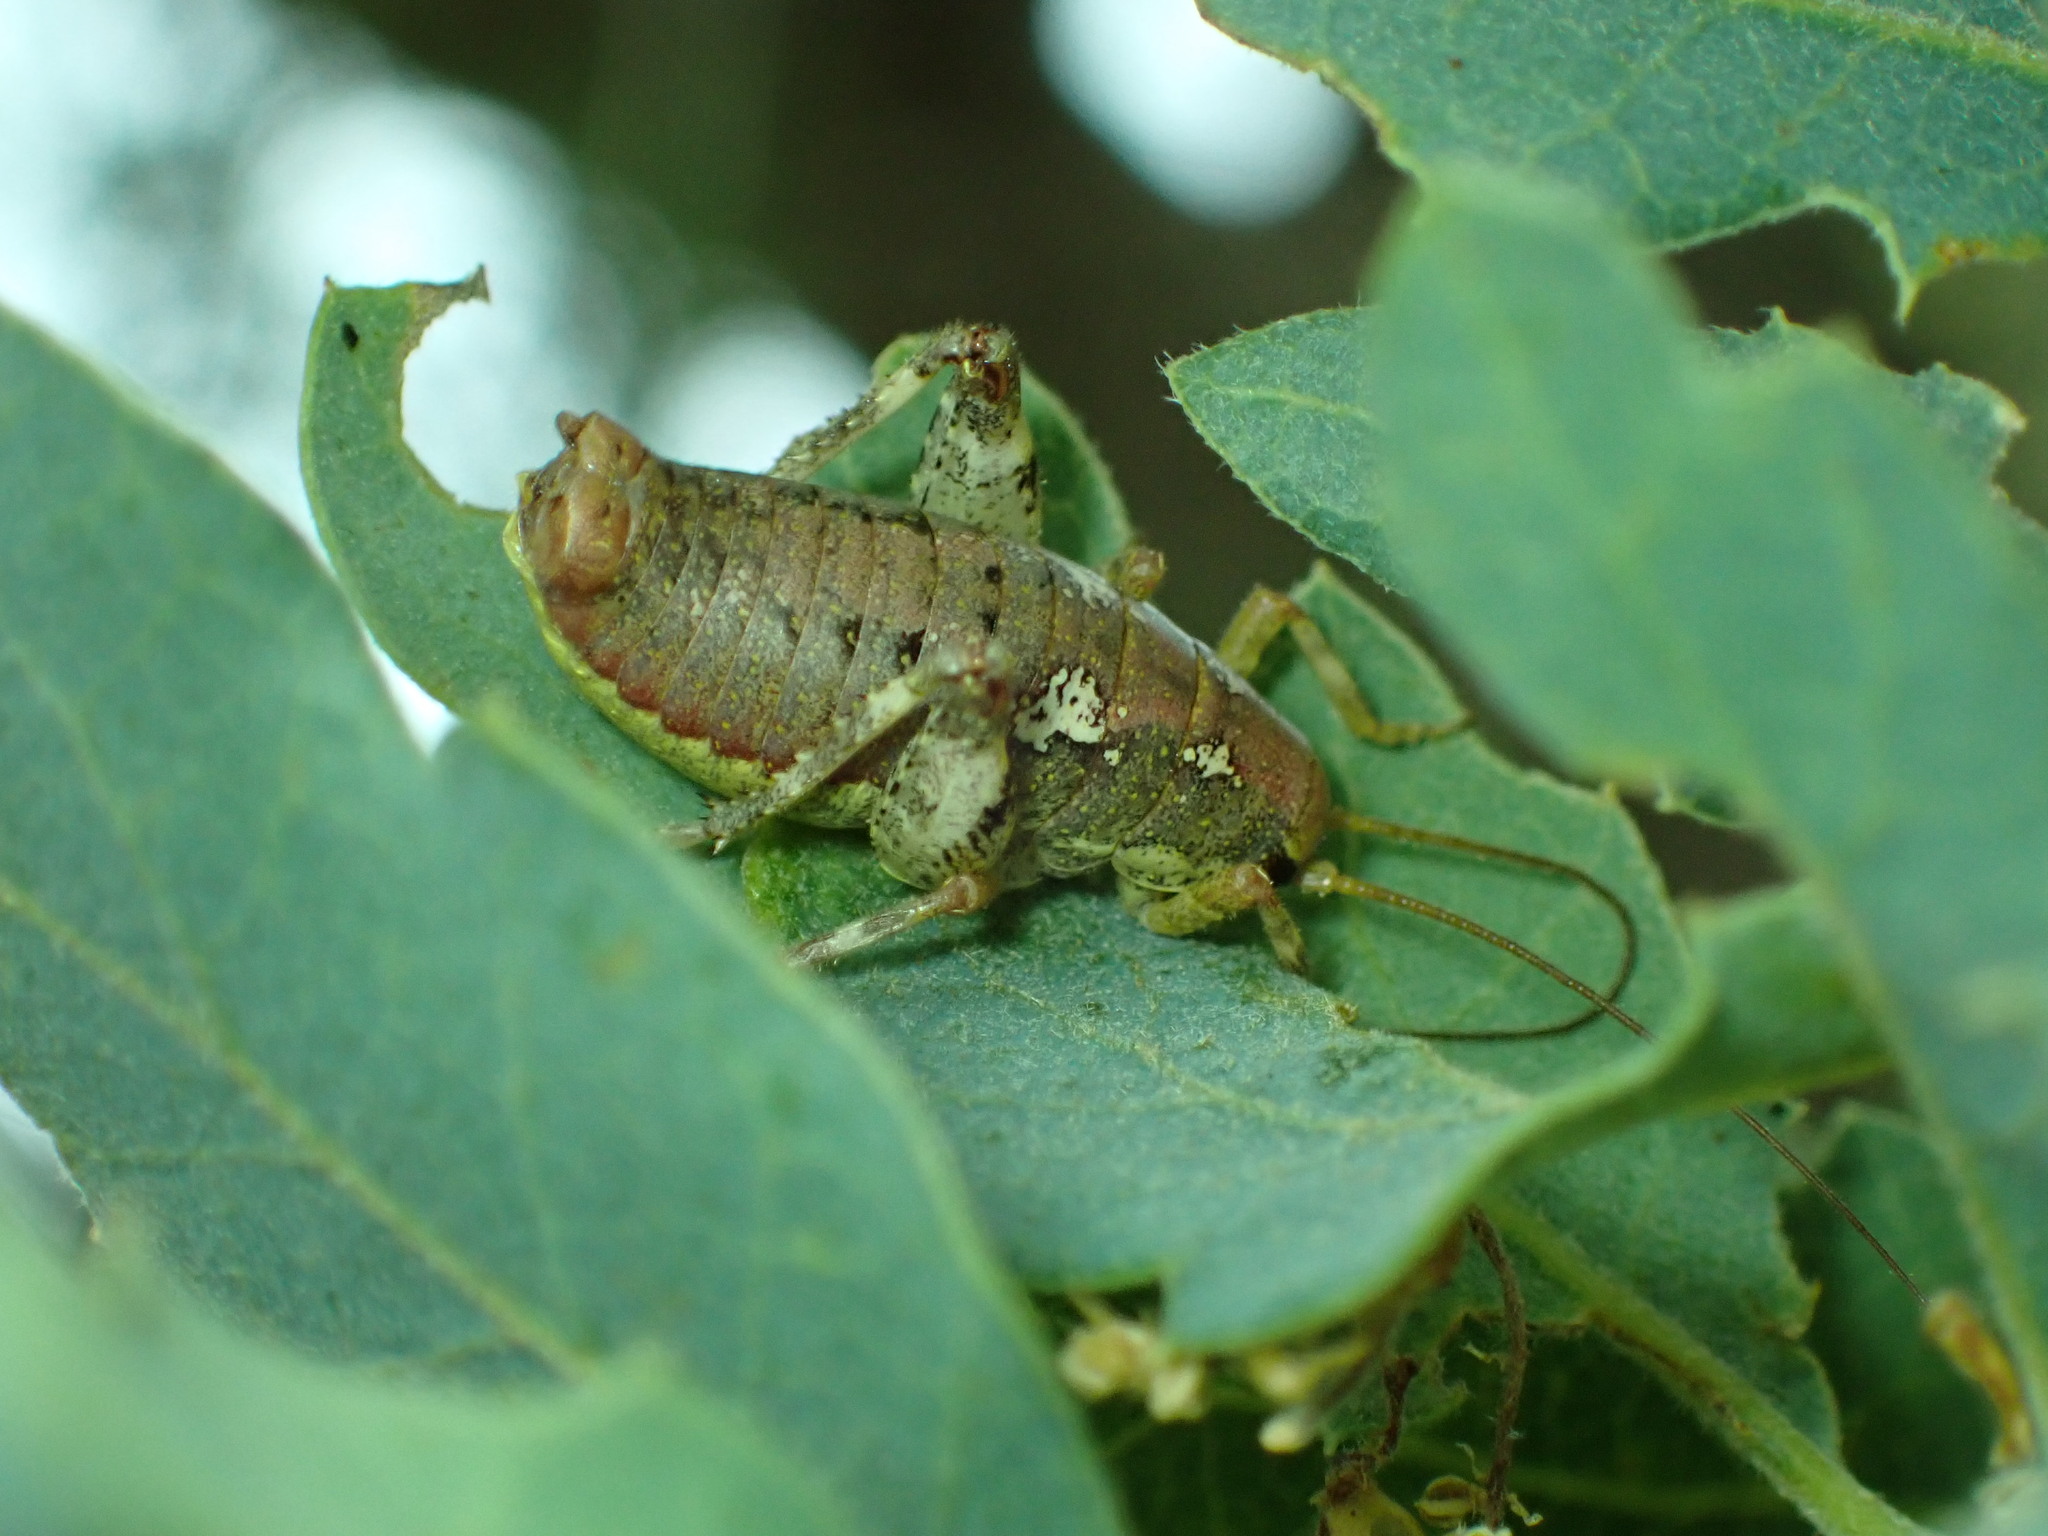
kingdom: Animalia
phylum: Arthropoda
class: Insecta
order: Orthoptera
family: Rhaphidophoridae
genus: Gammarotettix
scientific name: Gammarotettix genitalis
